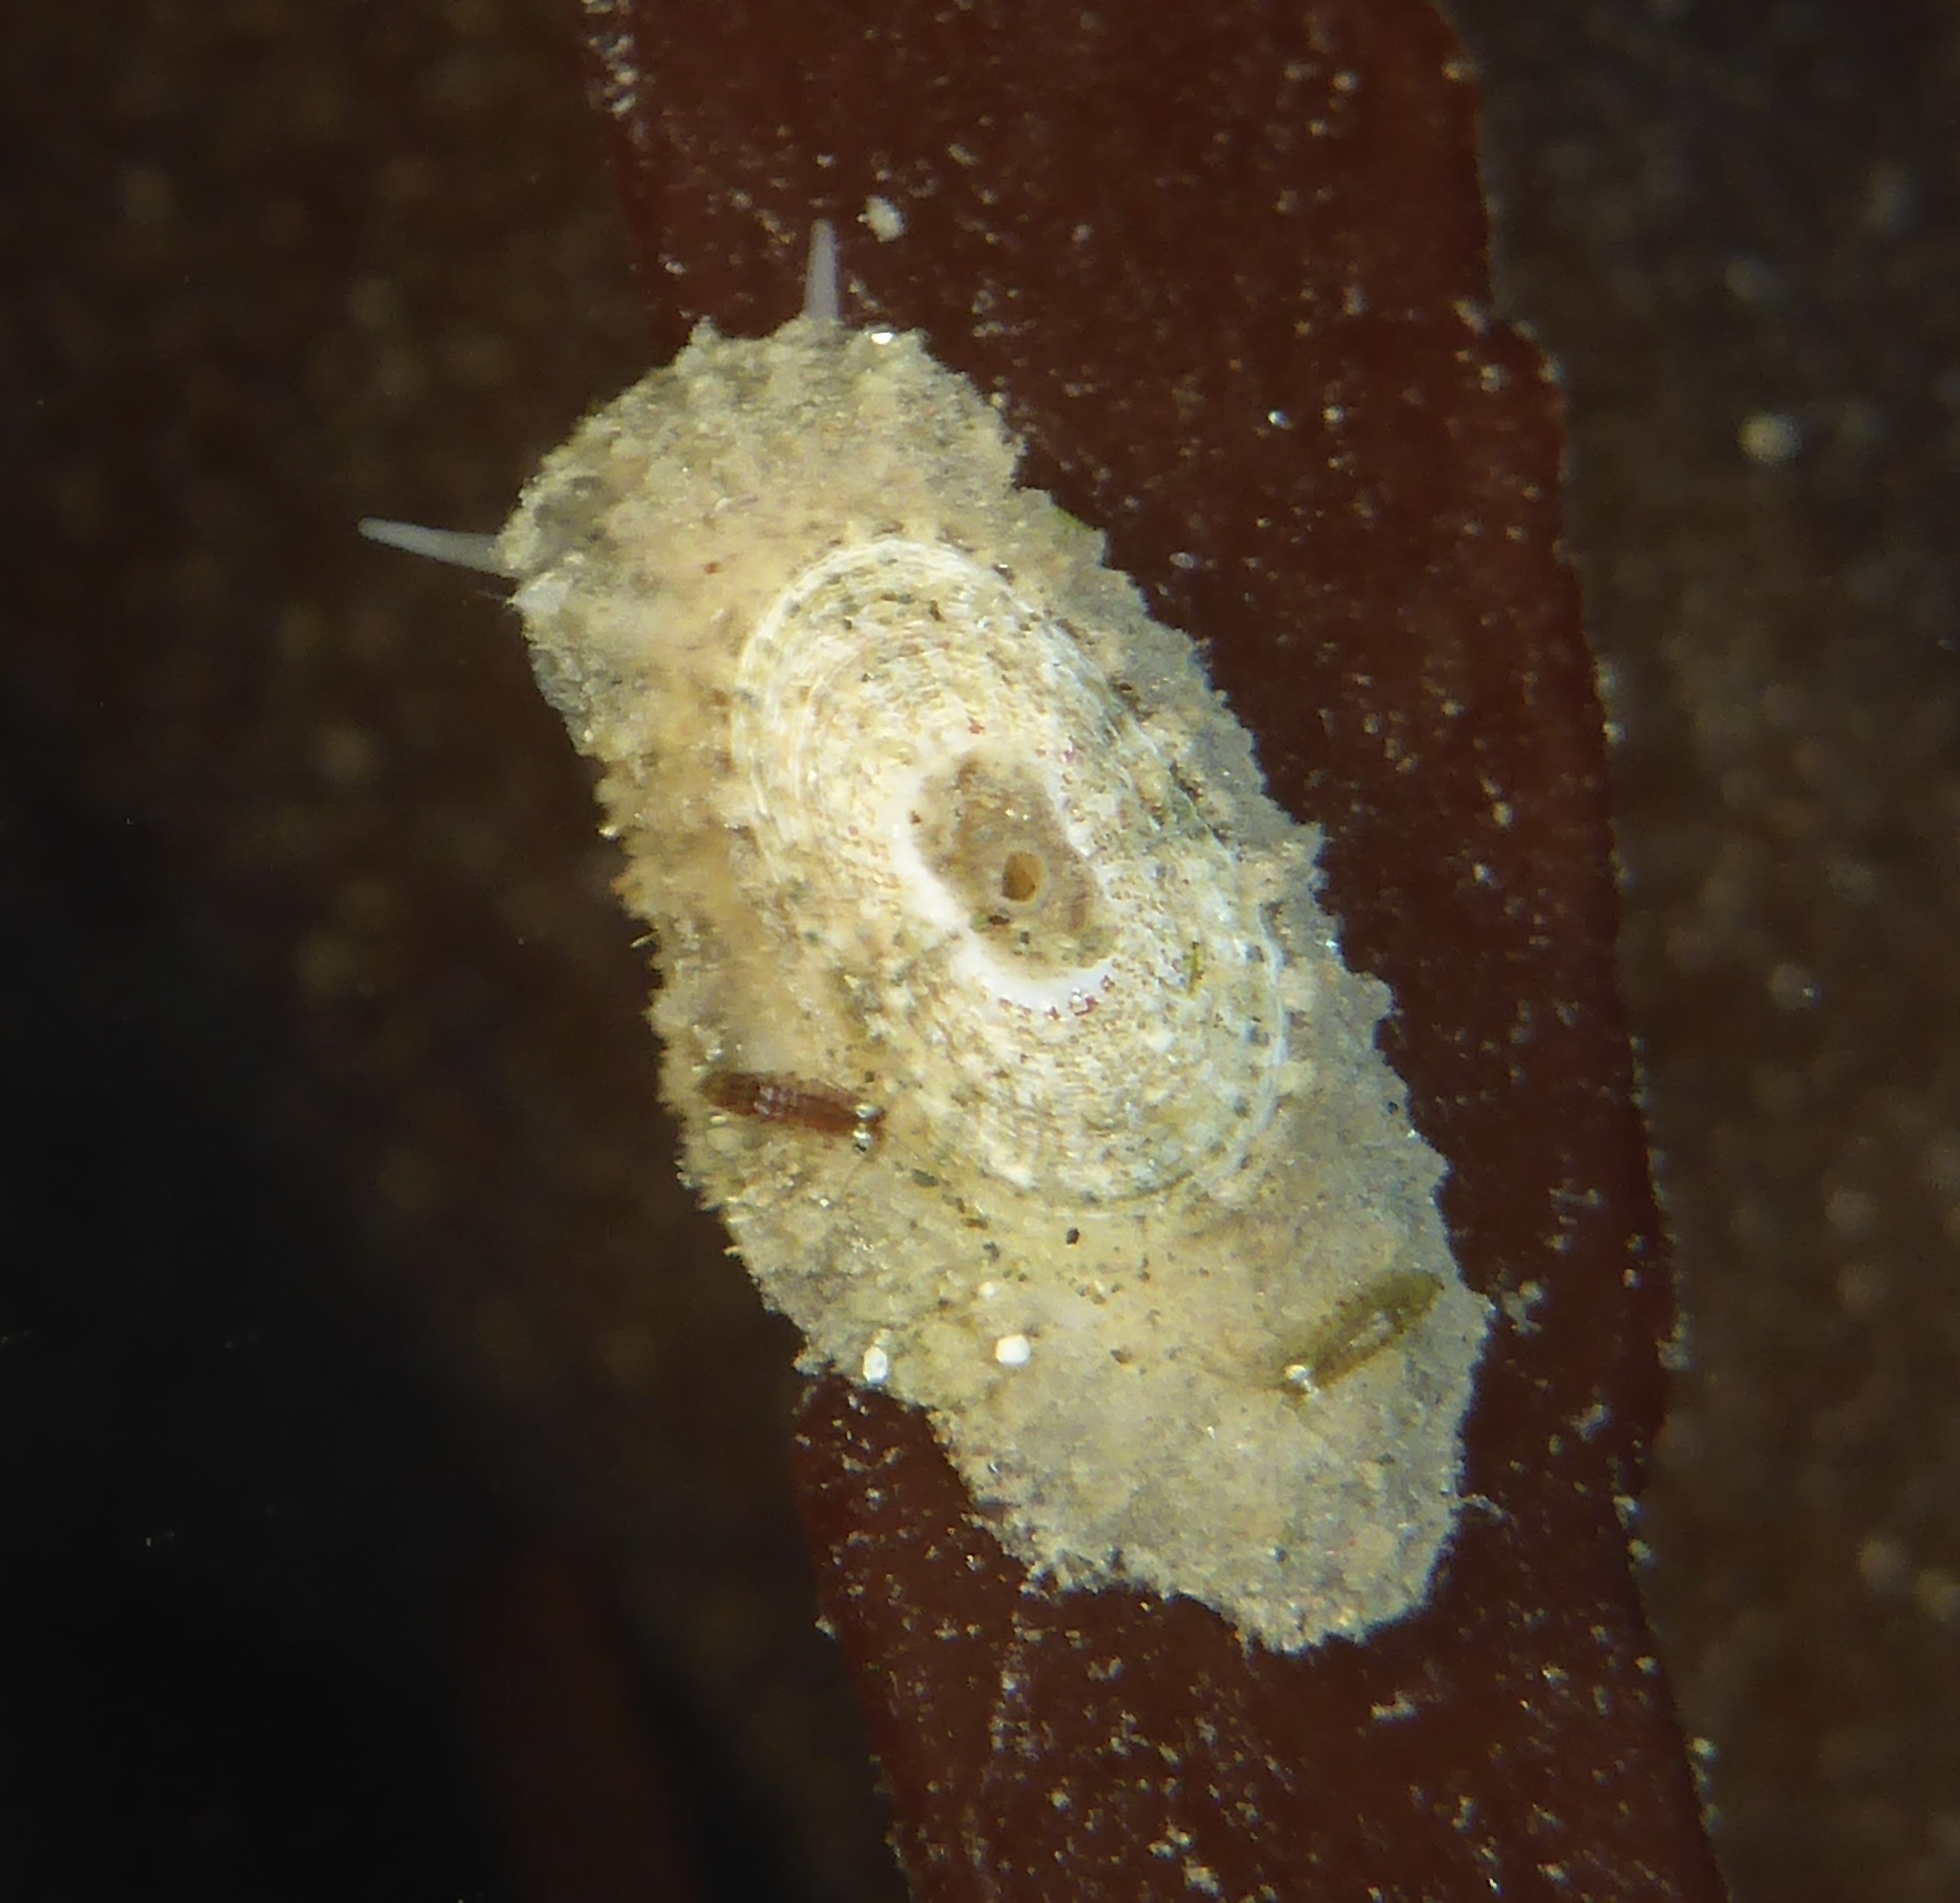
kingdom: Animalia
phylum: Mollusca
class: Gastropoda
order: Lepetellida
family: Fissurellidae
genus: Fissurellidea
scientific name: Fissurellidea bimaculata
